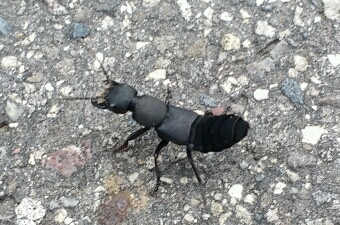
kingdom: Animalia
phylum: Arthropoda
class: Insecta
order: Coleoptera
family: Staphylinidae
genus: Ocypus
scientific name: Ocypus olens
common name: Devil's coach-horse
